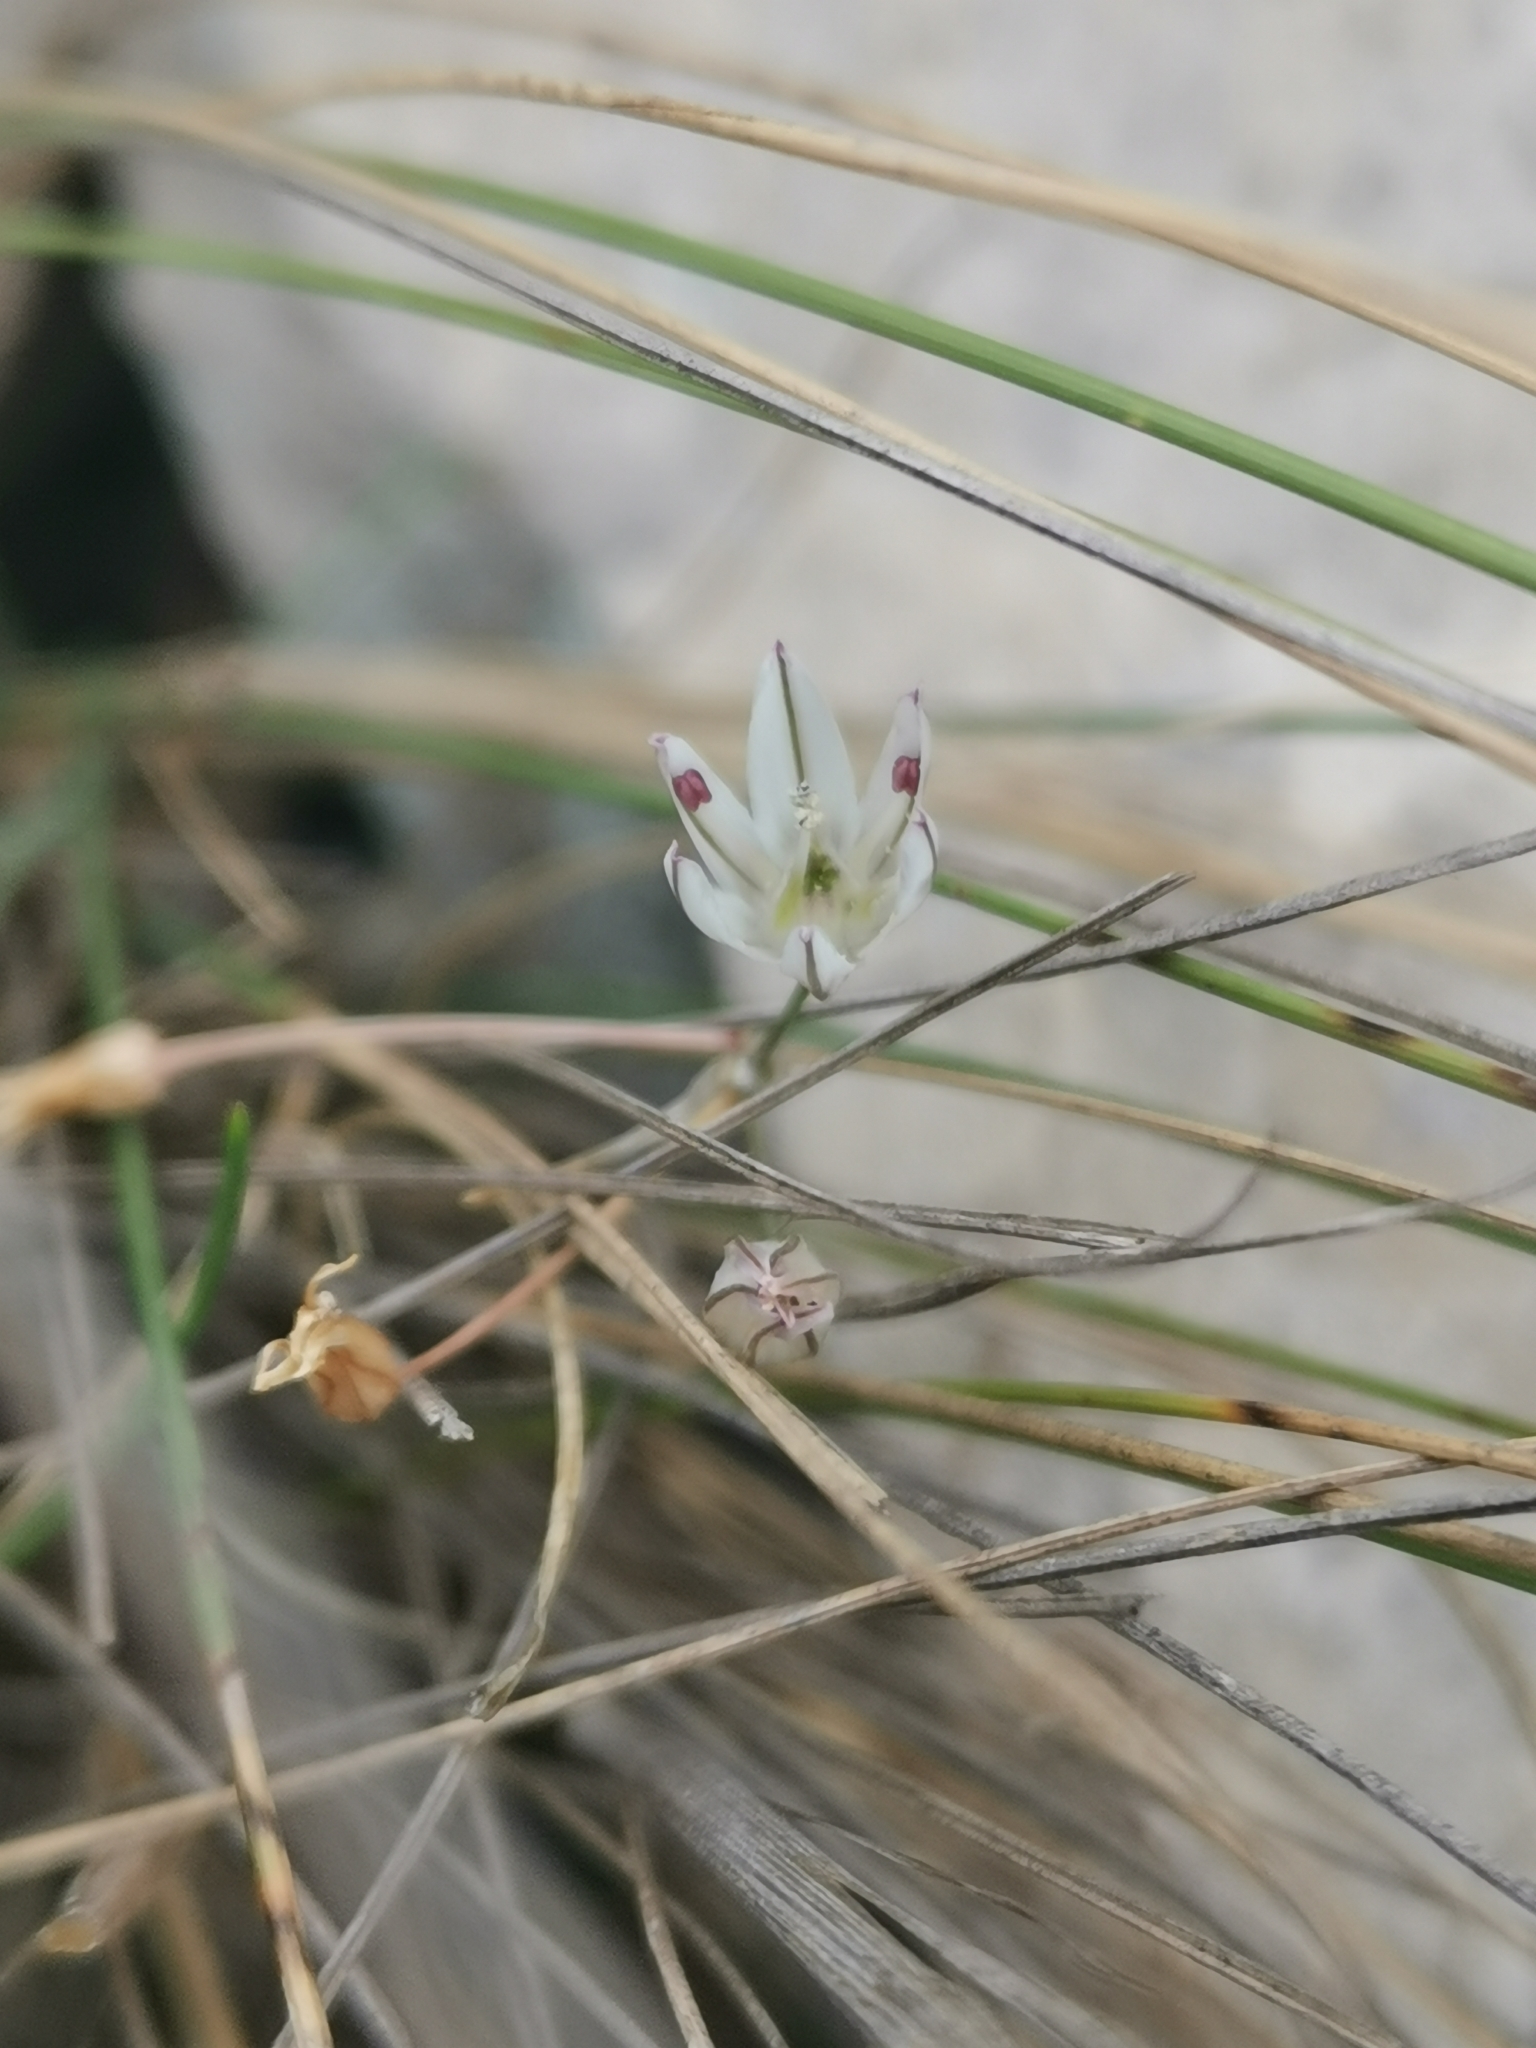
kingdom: Plantae
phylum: Tracheophyta
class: Liliopsida
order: Asparagales
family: Amaryllidaceae
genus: Allium
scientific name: Allium moschatum
